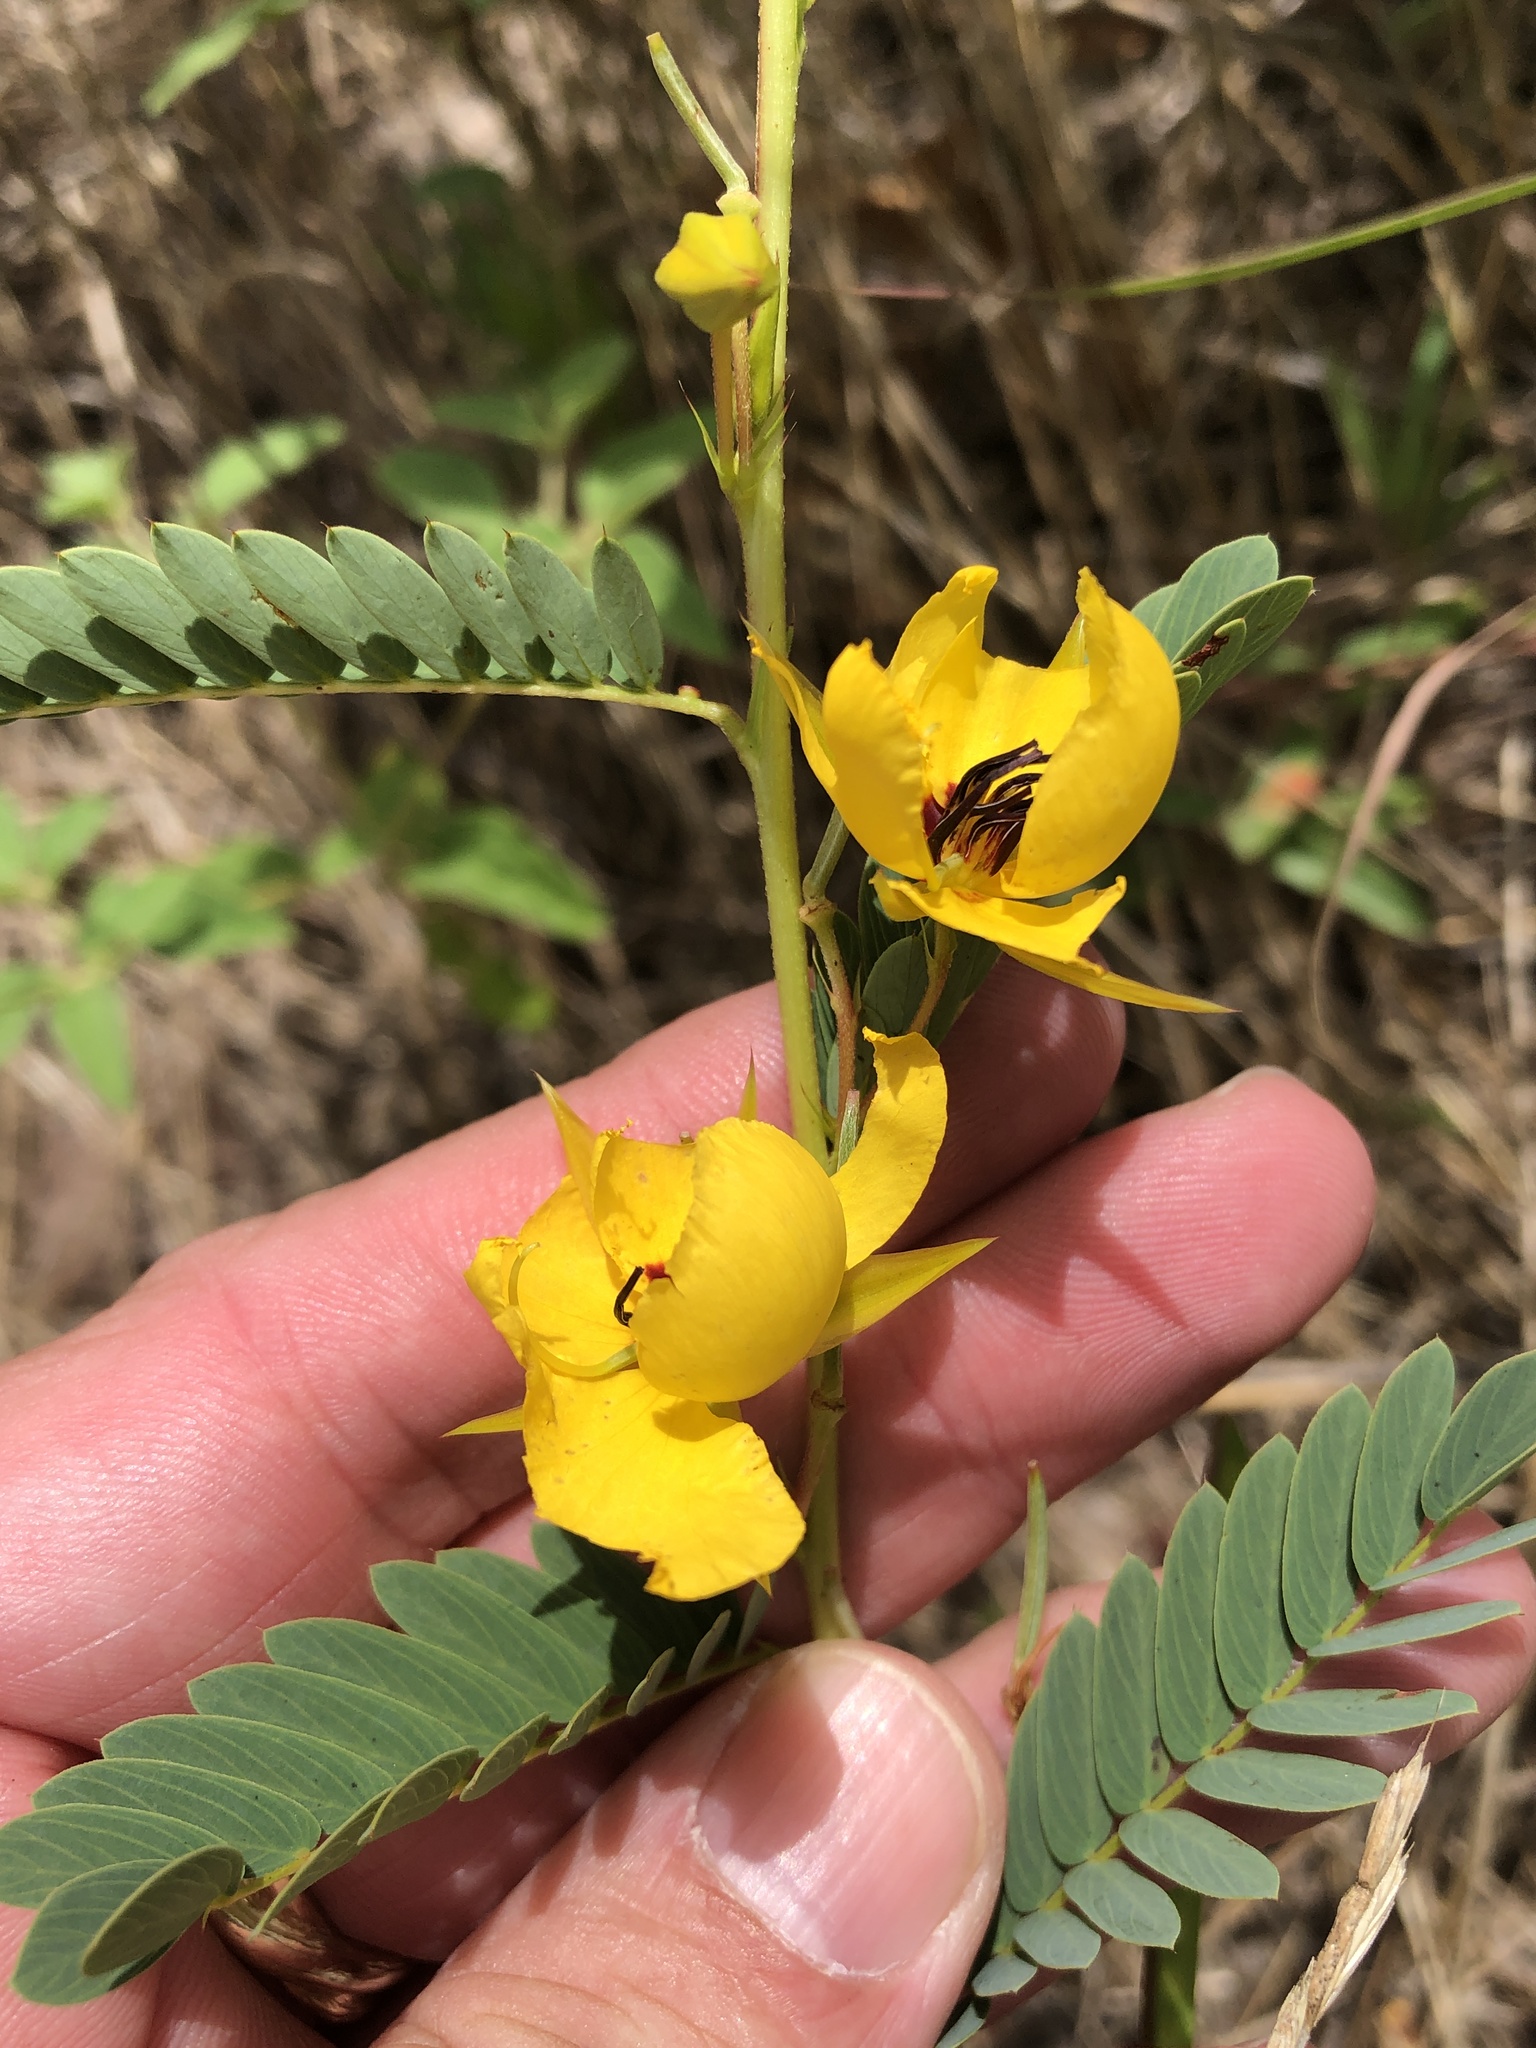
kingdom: Plantae
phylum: Tracheophyta
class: Magnoliopsida
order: Fabales
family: Fabaceae
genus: Chamaecrista
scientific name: Chamaecrista fasciculata
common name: Golden cassia
